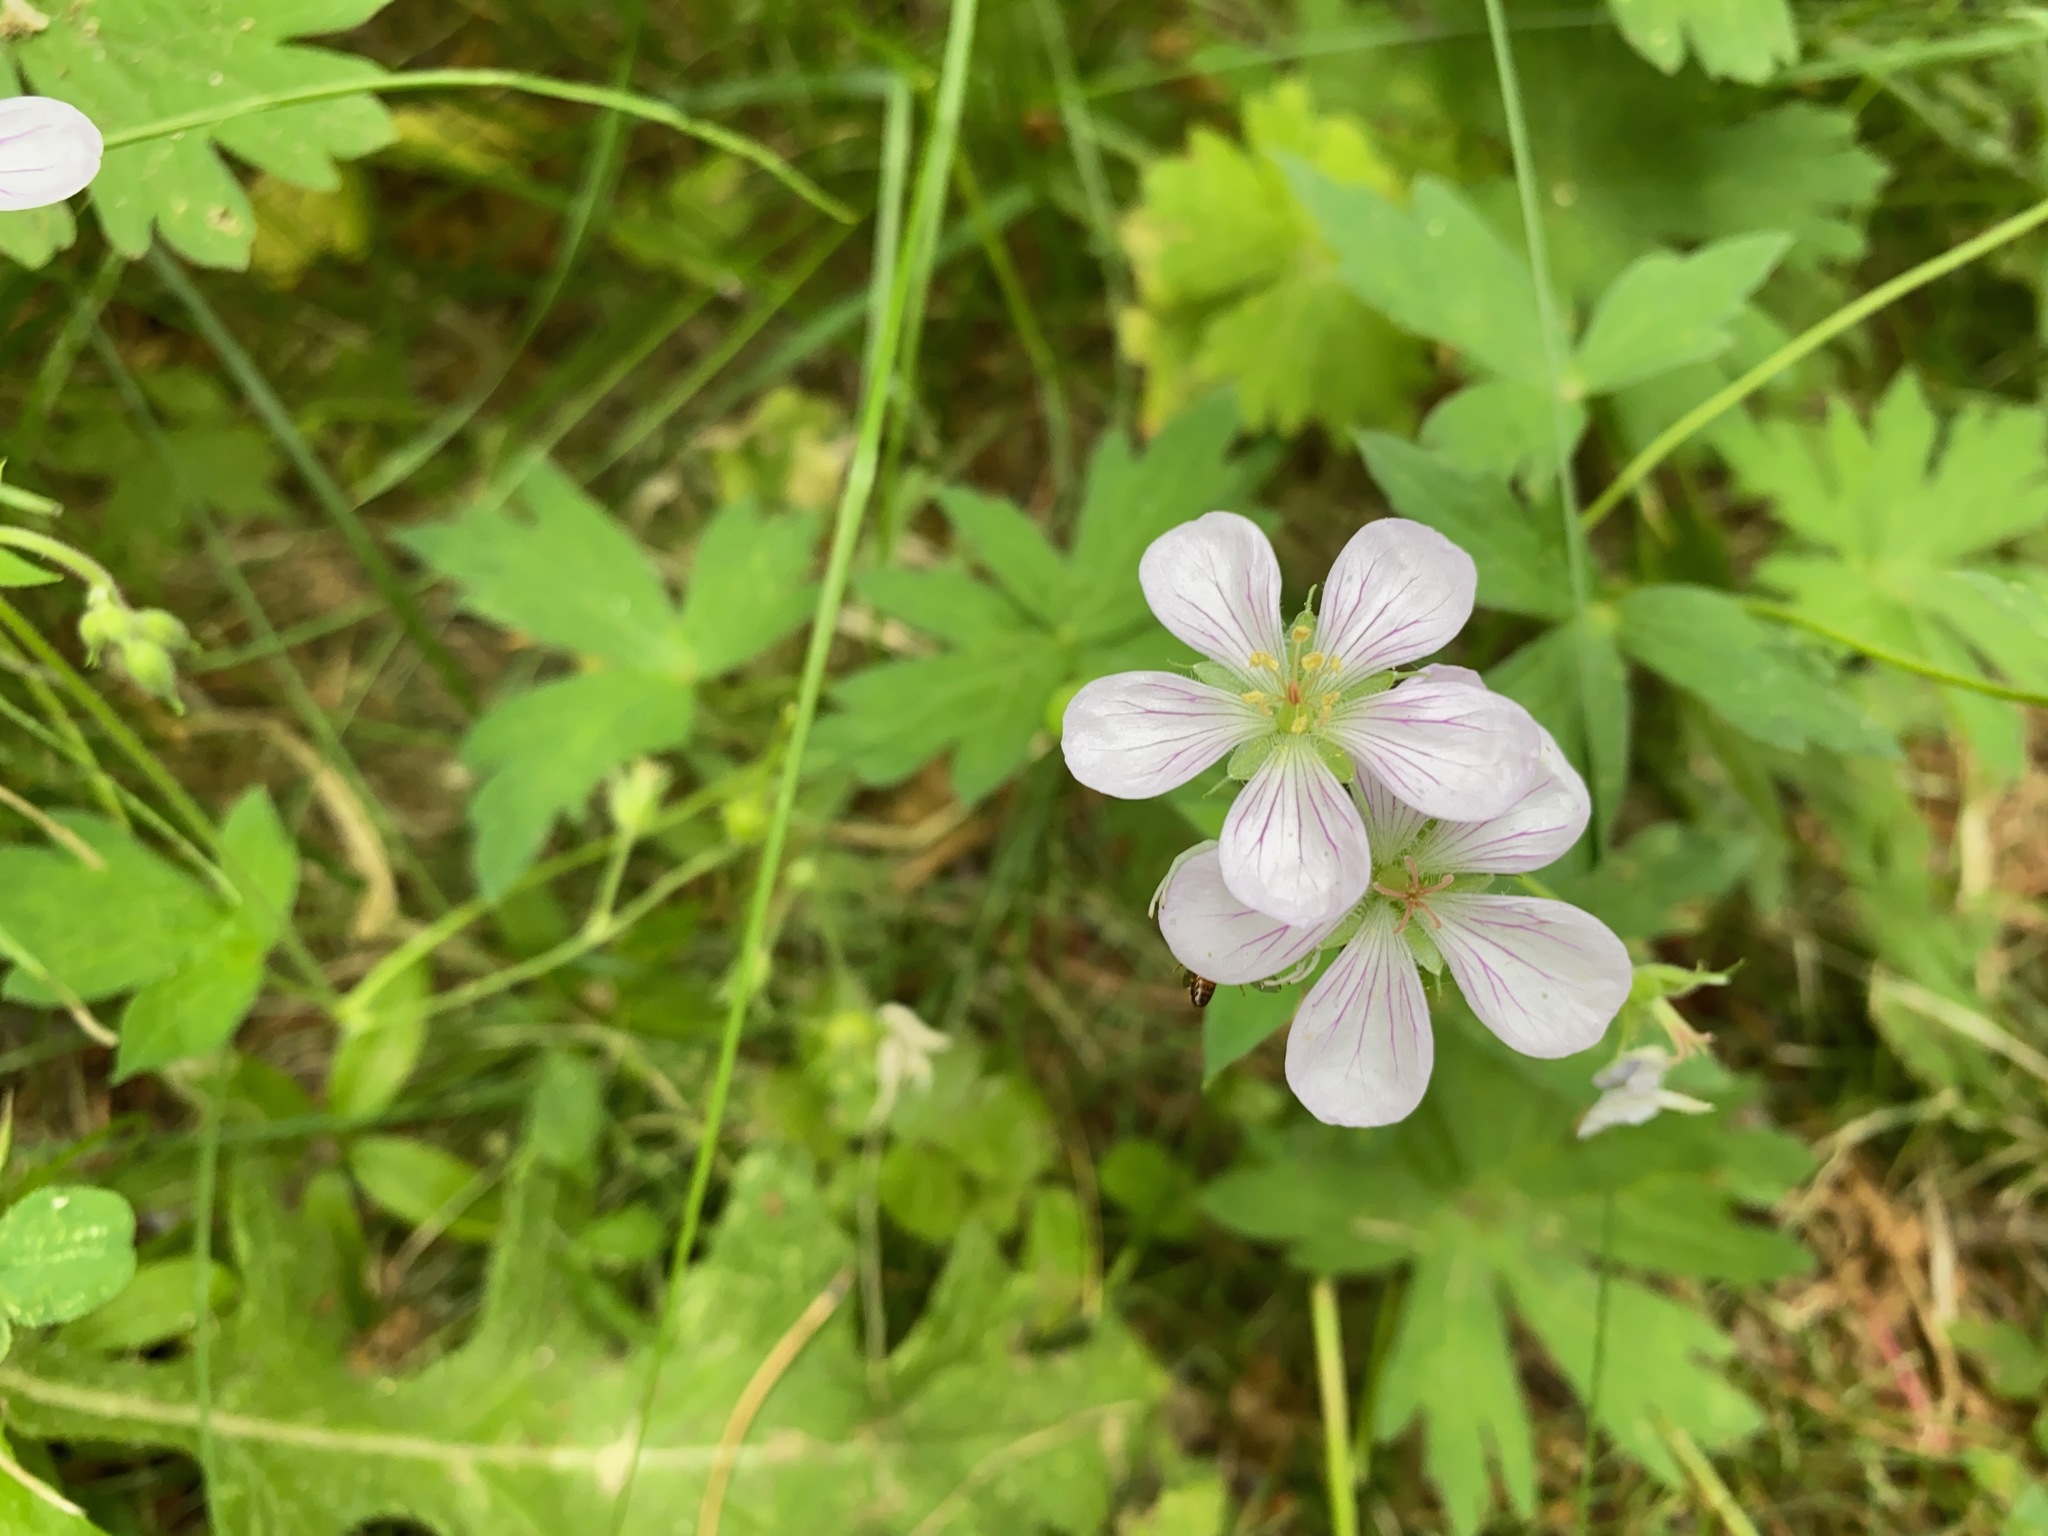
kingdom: Plantae
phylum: Tracheophyta
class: Magnoliopsida
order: Geraniales
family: Geraniaceae
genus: Geranium
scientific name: Geranium richardsonii
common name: Richardson's crane's-bill
